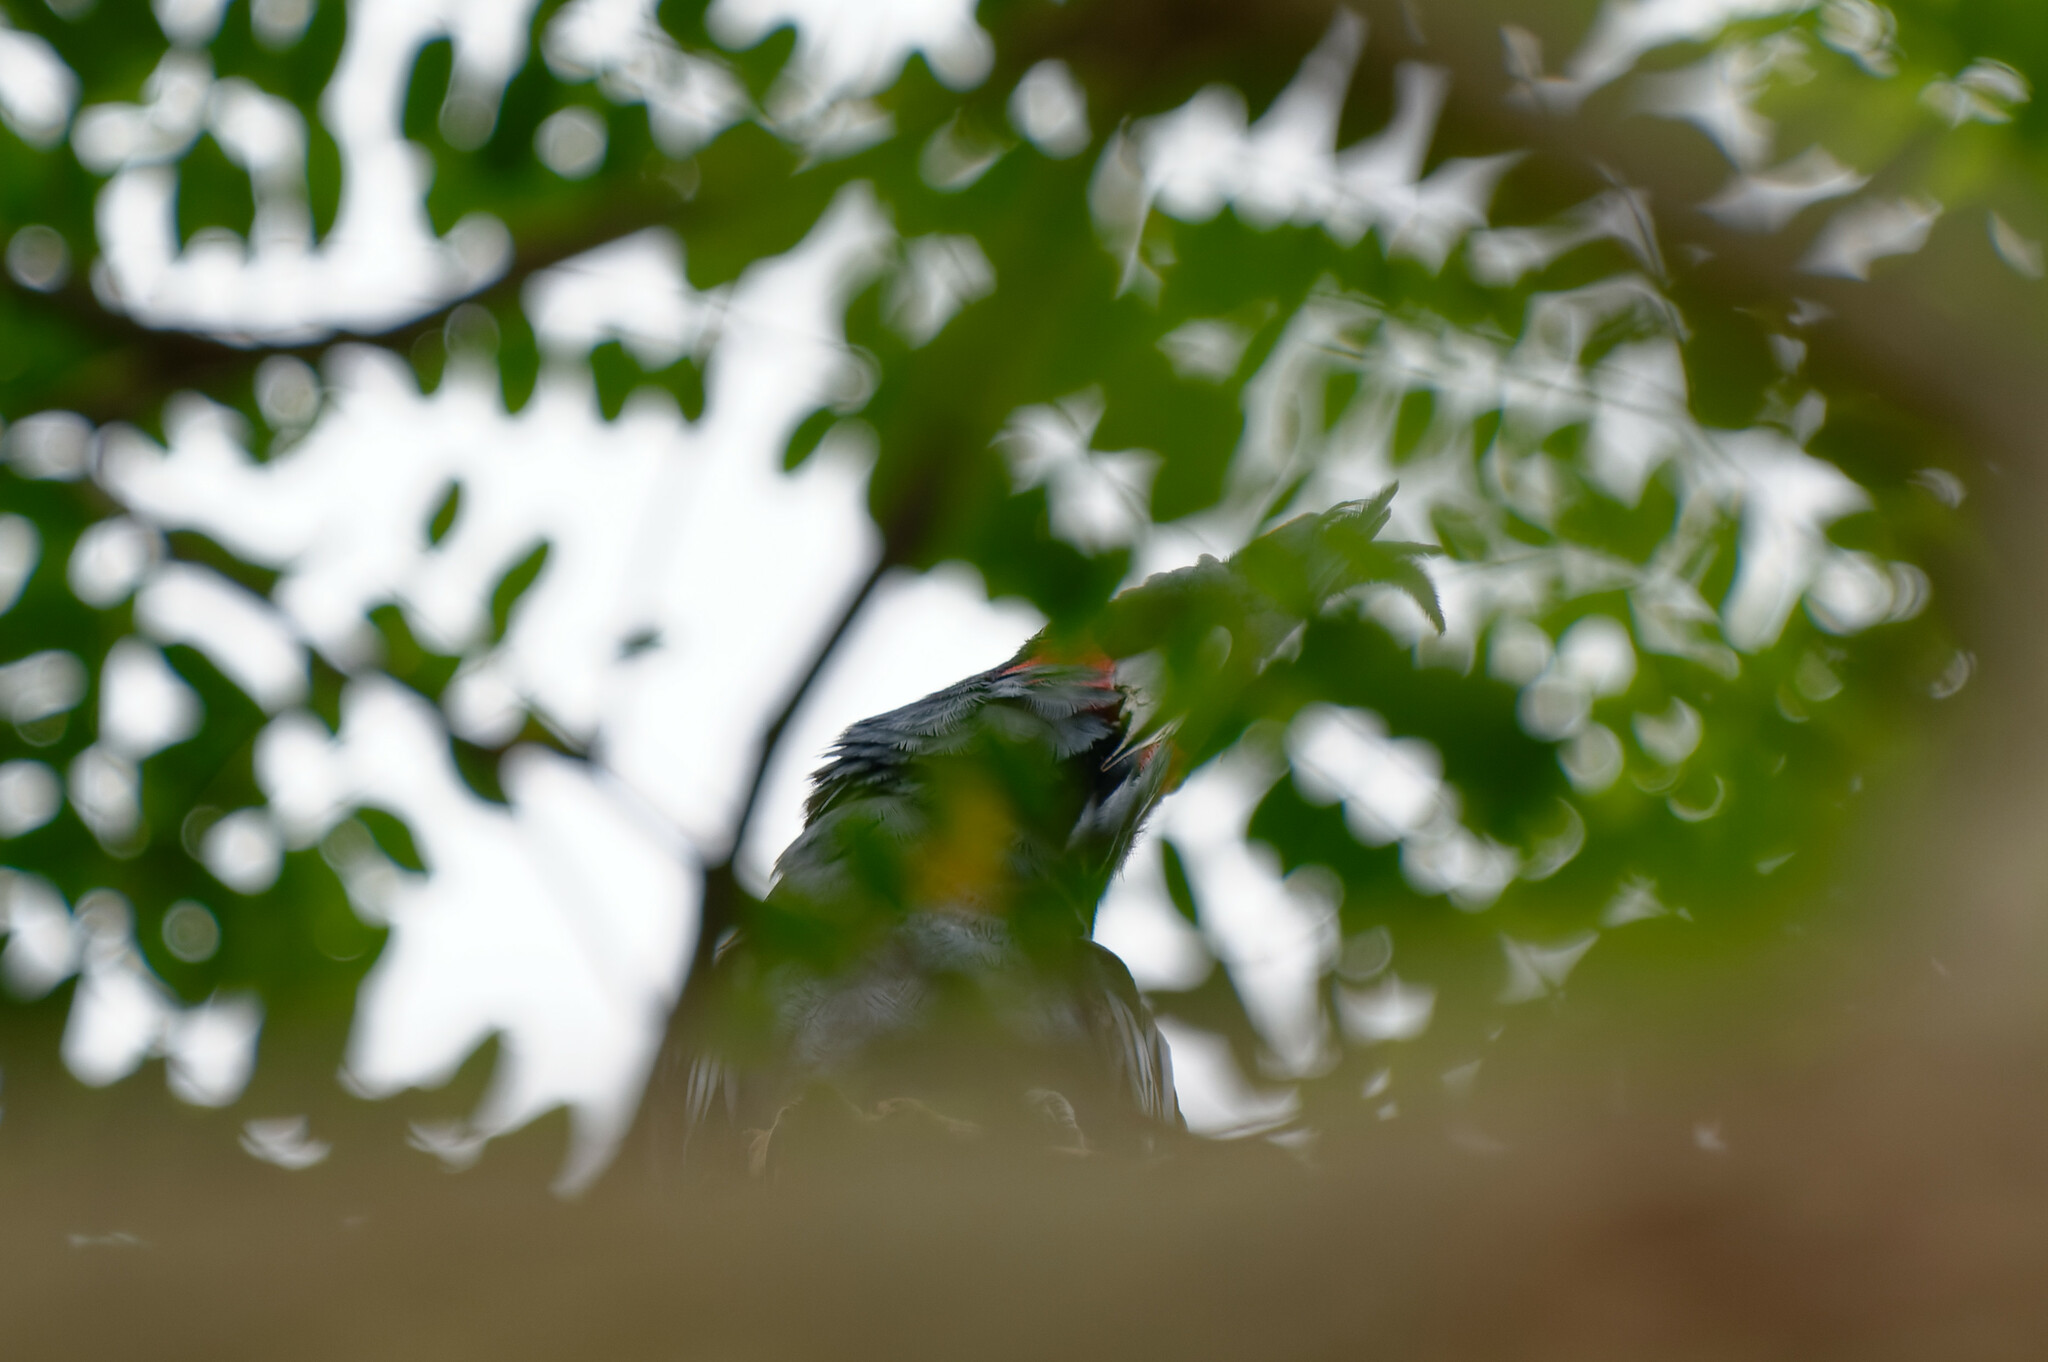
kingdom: Animalia
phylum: Chordata
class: Aves
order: Psittaciformes
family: Psittacidae
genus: Probosciger
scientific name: Probosciger aterrimus
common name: Palm cockatoo
